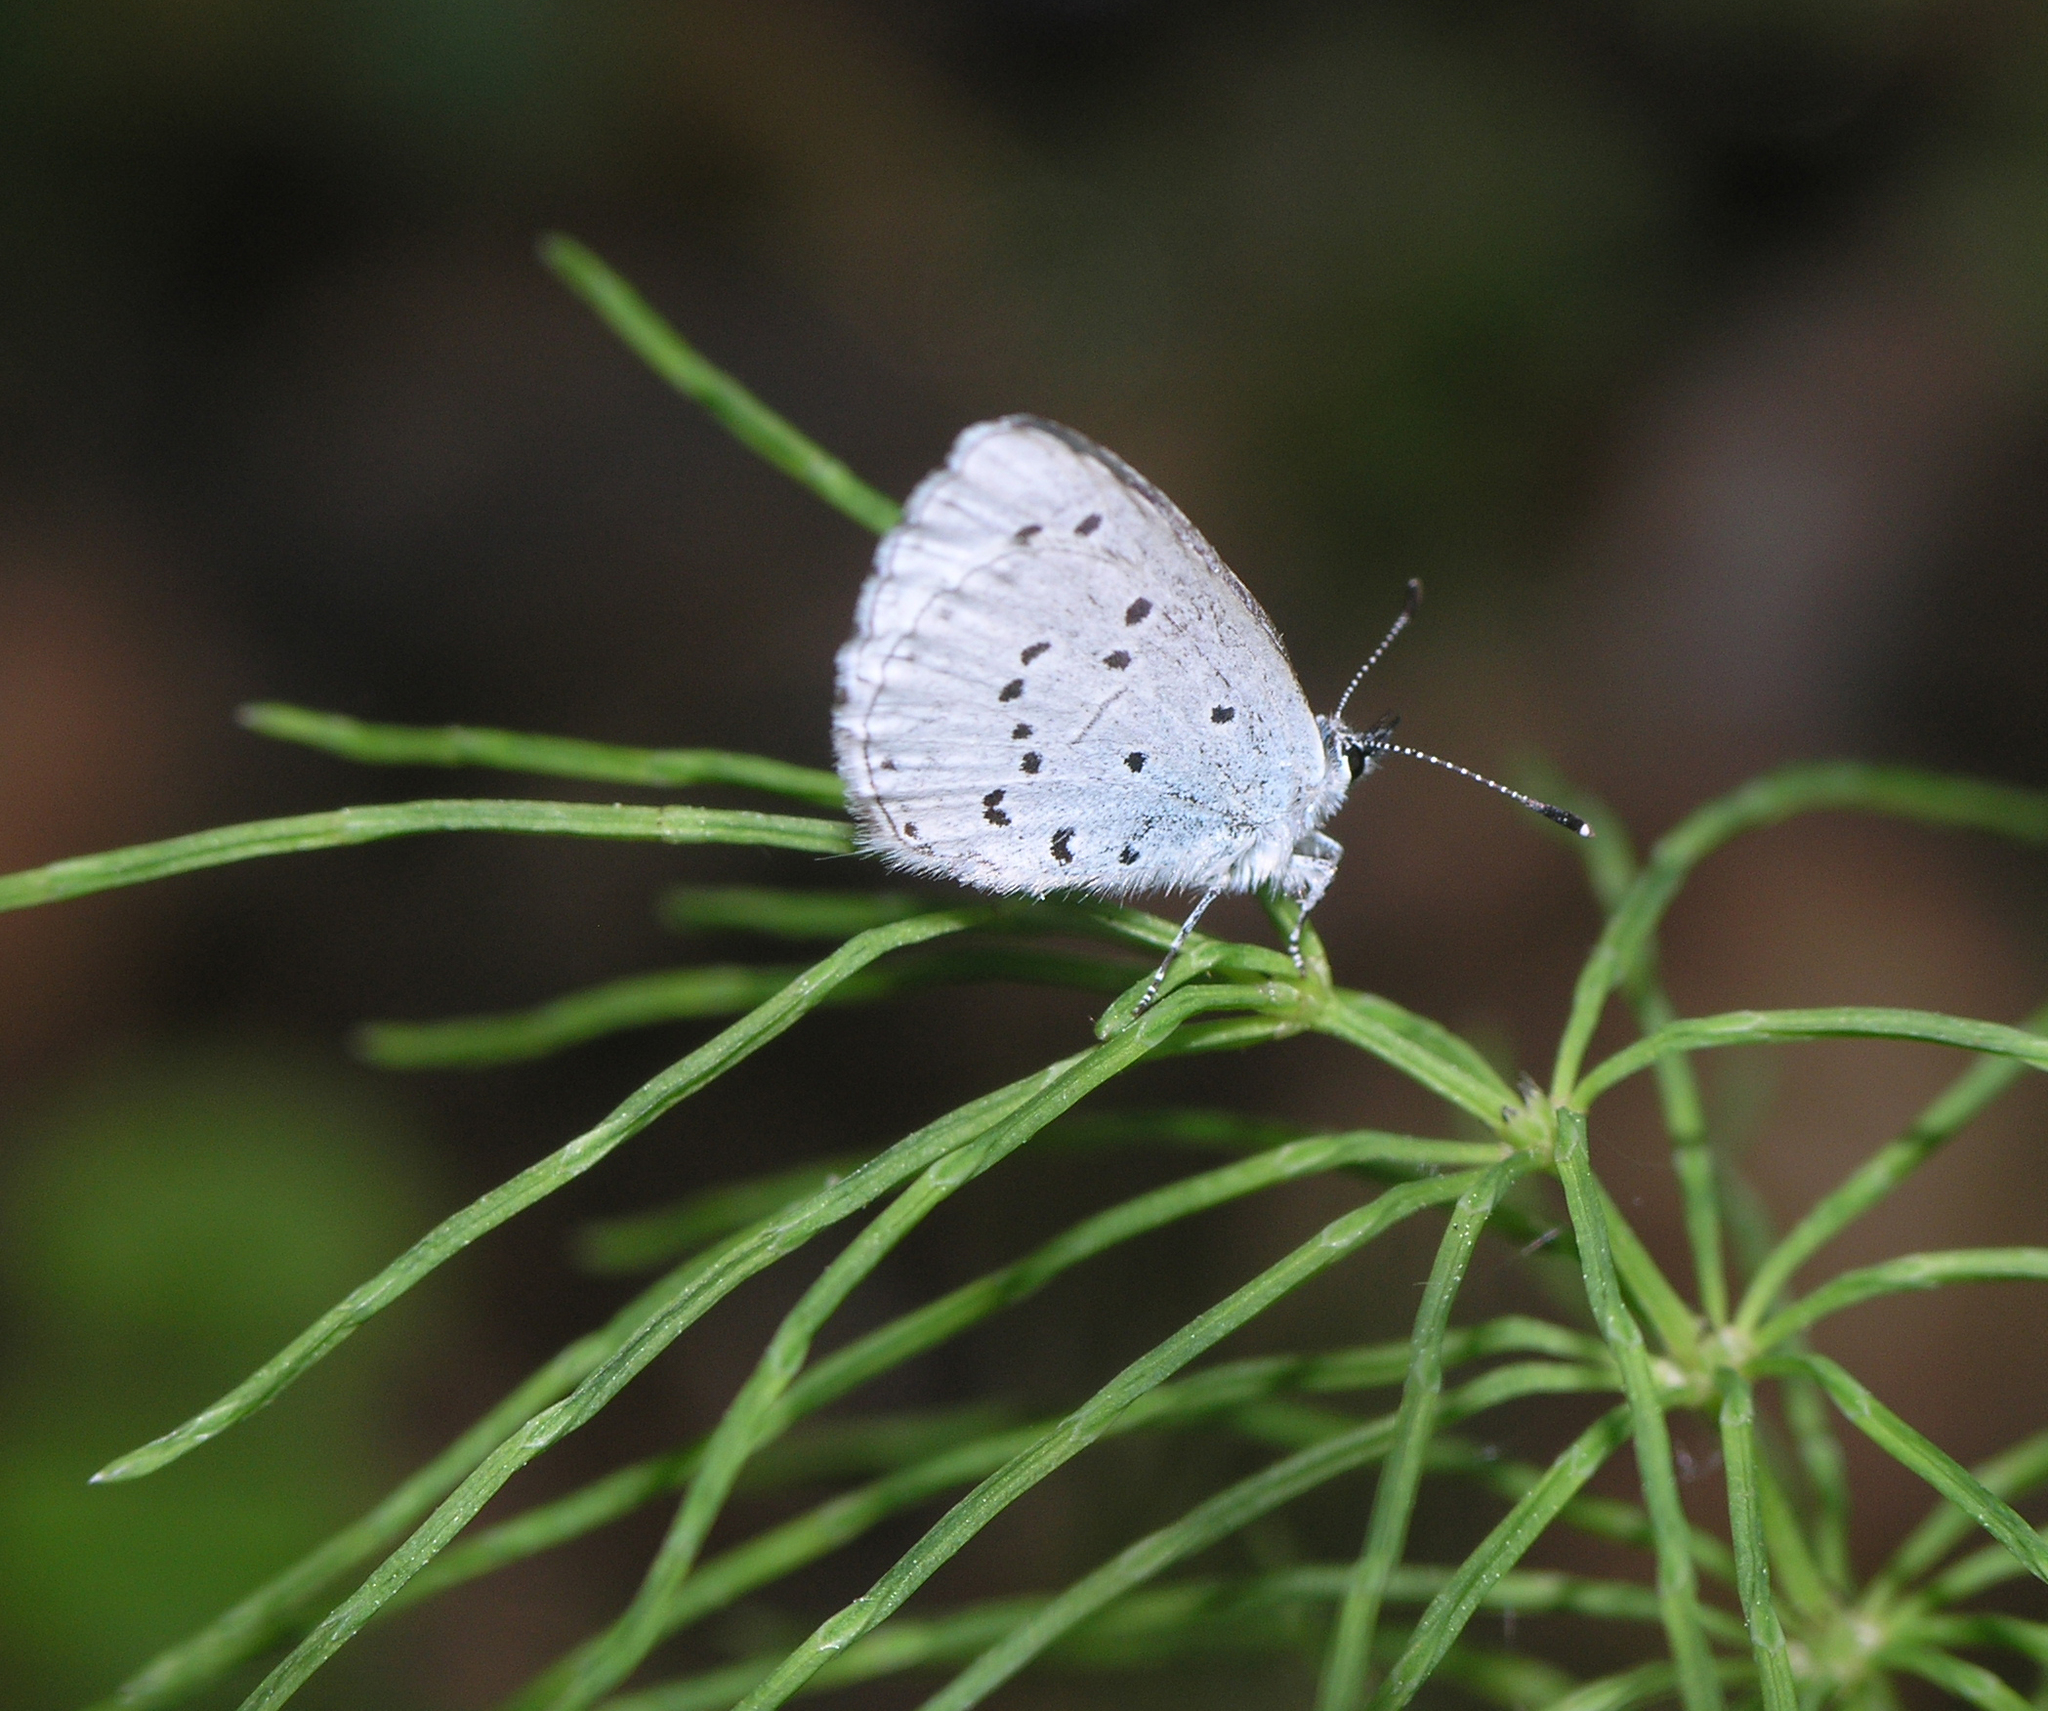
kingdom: Animalia
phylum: Arthropoda
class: Insecta
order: Lepidoptera
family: Lycaenidae
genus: Celastrina
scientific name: Celastrina argiolus
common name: Holly blue
